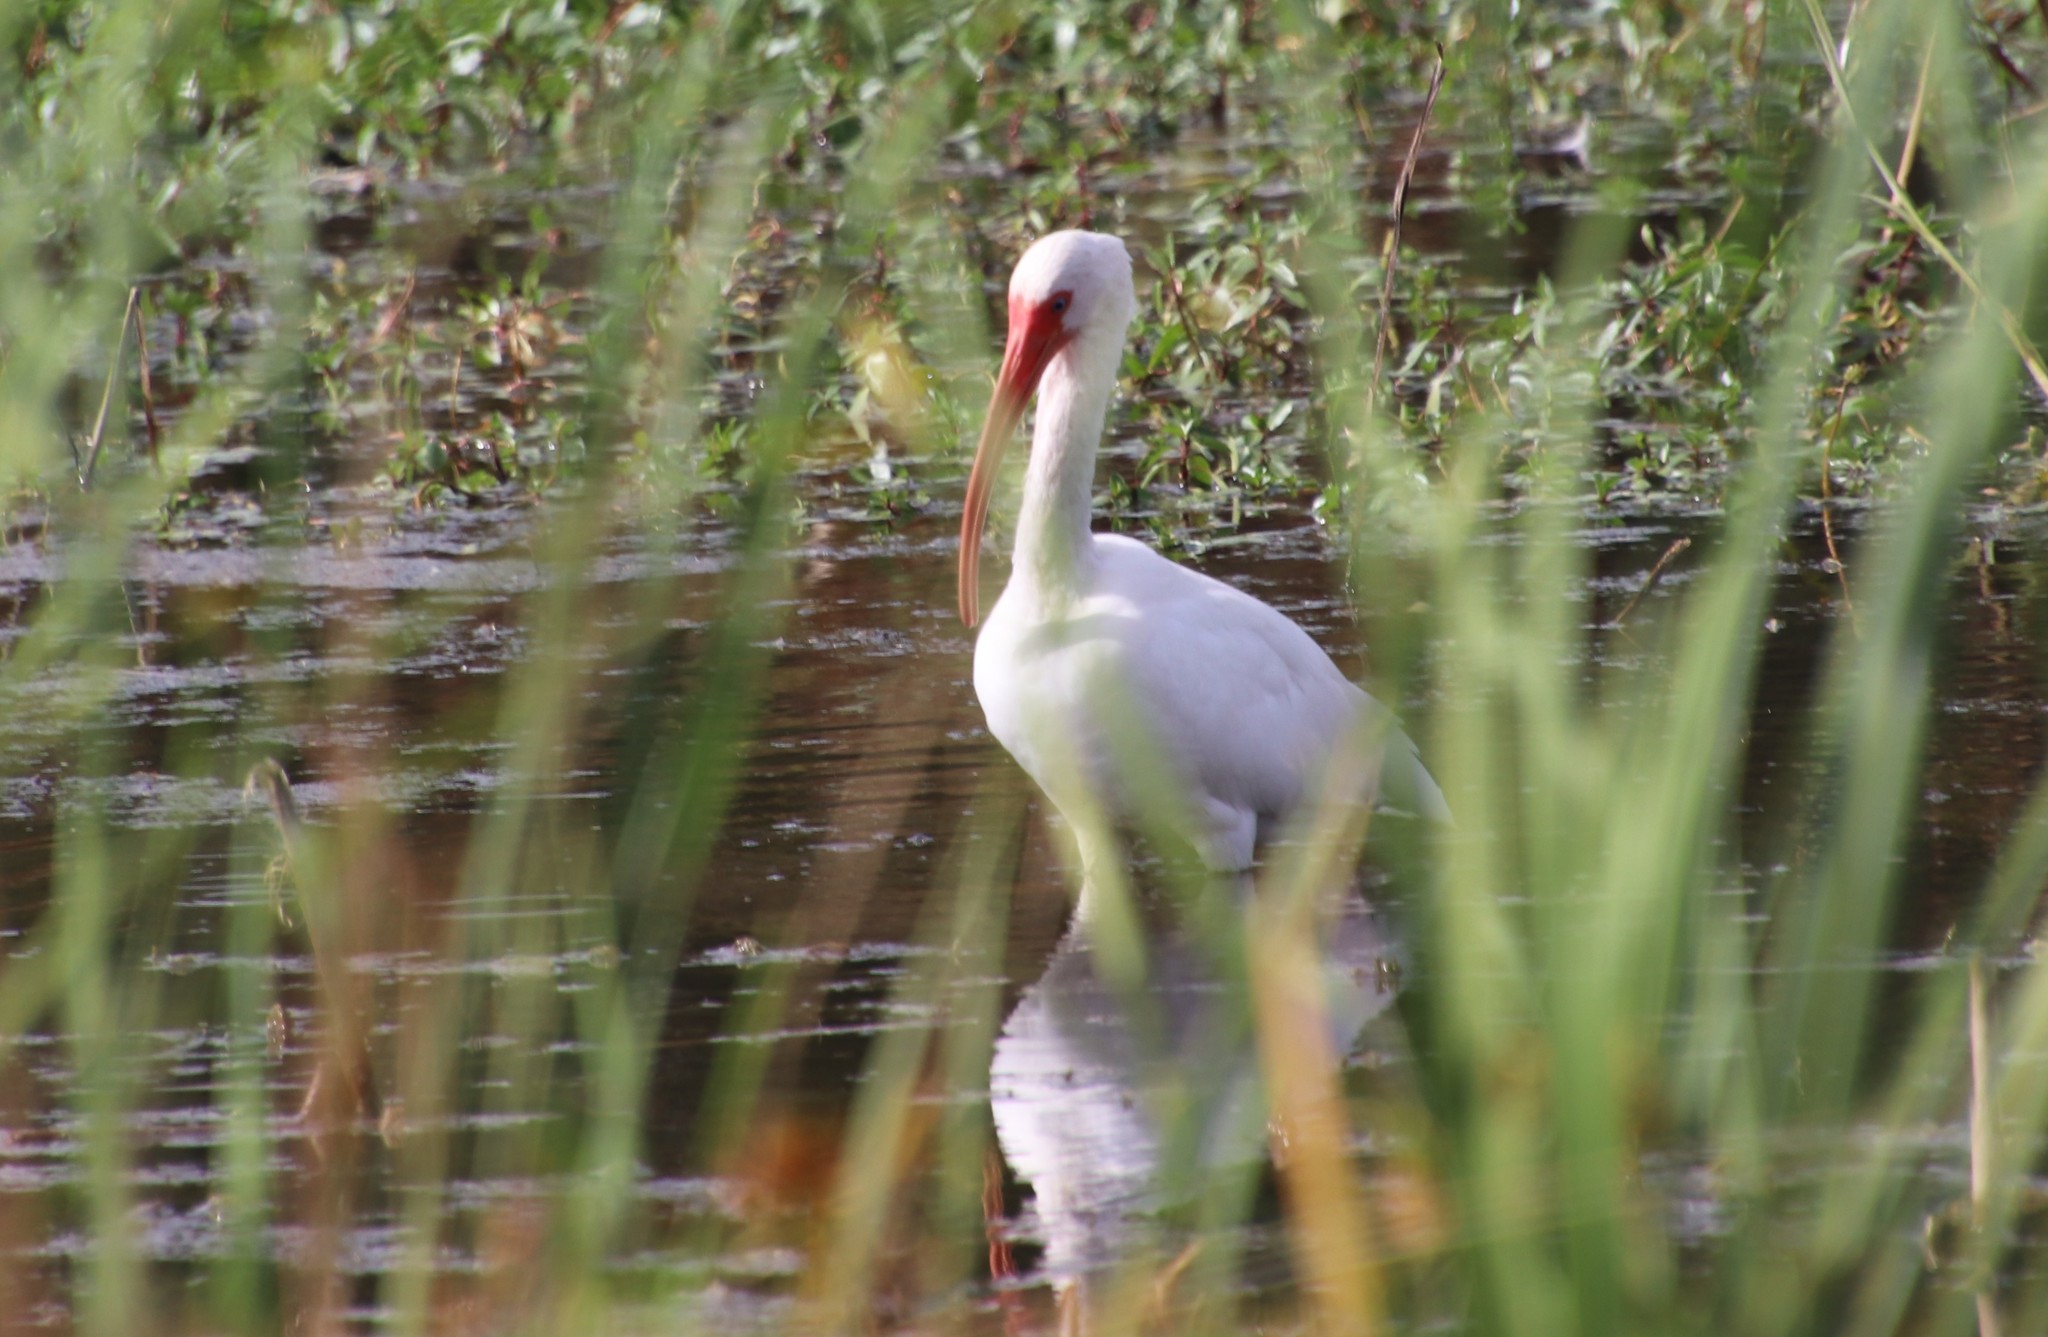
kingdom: Animalia
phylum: Chordata
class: Aves
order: Pelecaniformes
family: Threskiornithidae
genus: Eudocimus
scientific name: Eudocimus albus
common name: White ibis
